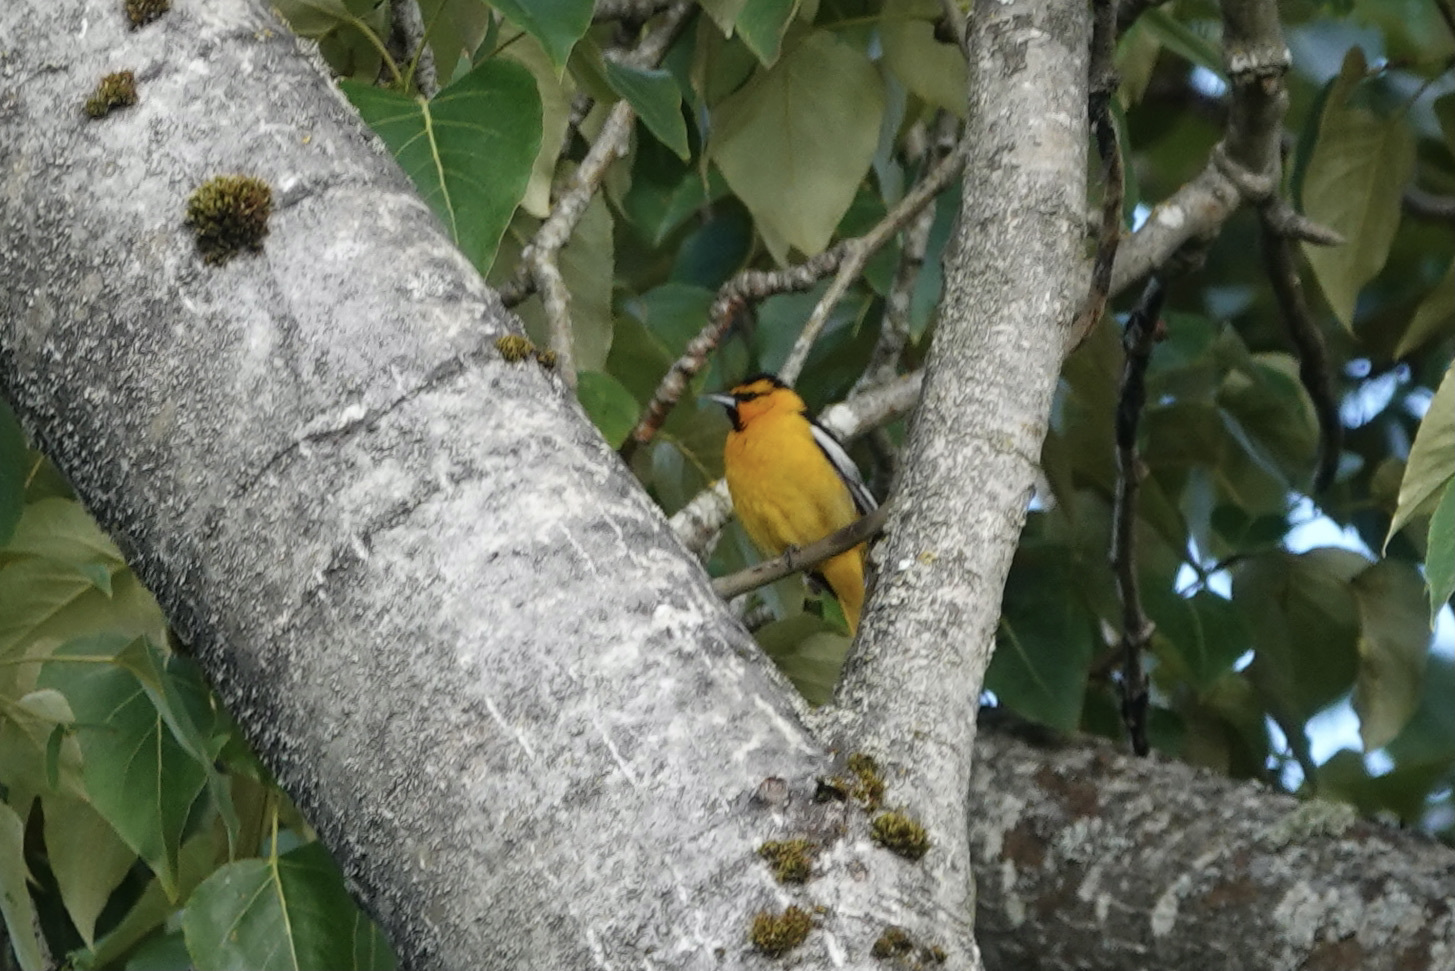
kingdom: Animalia
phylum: Chordata
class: Aves
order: Passeriformes
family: Icteridae
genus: Icterus
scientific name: Icterus bullockii
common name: Bullock's oriole
